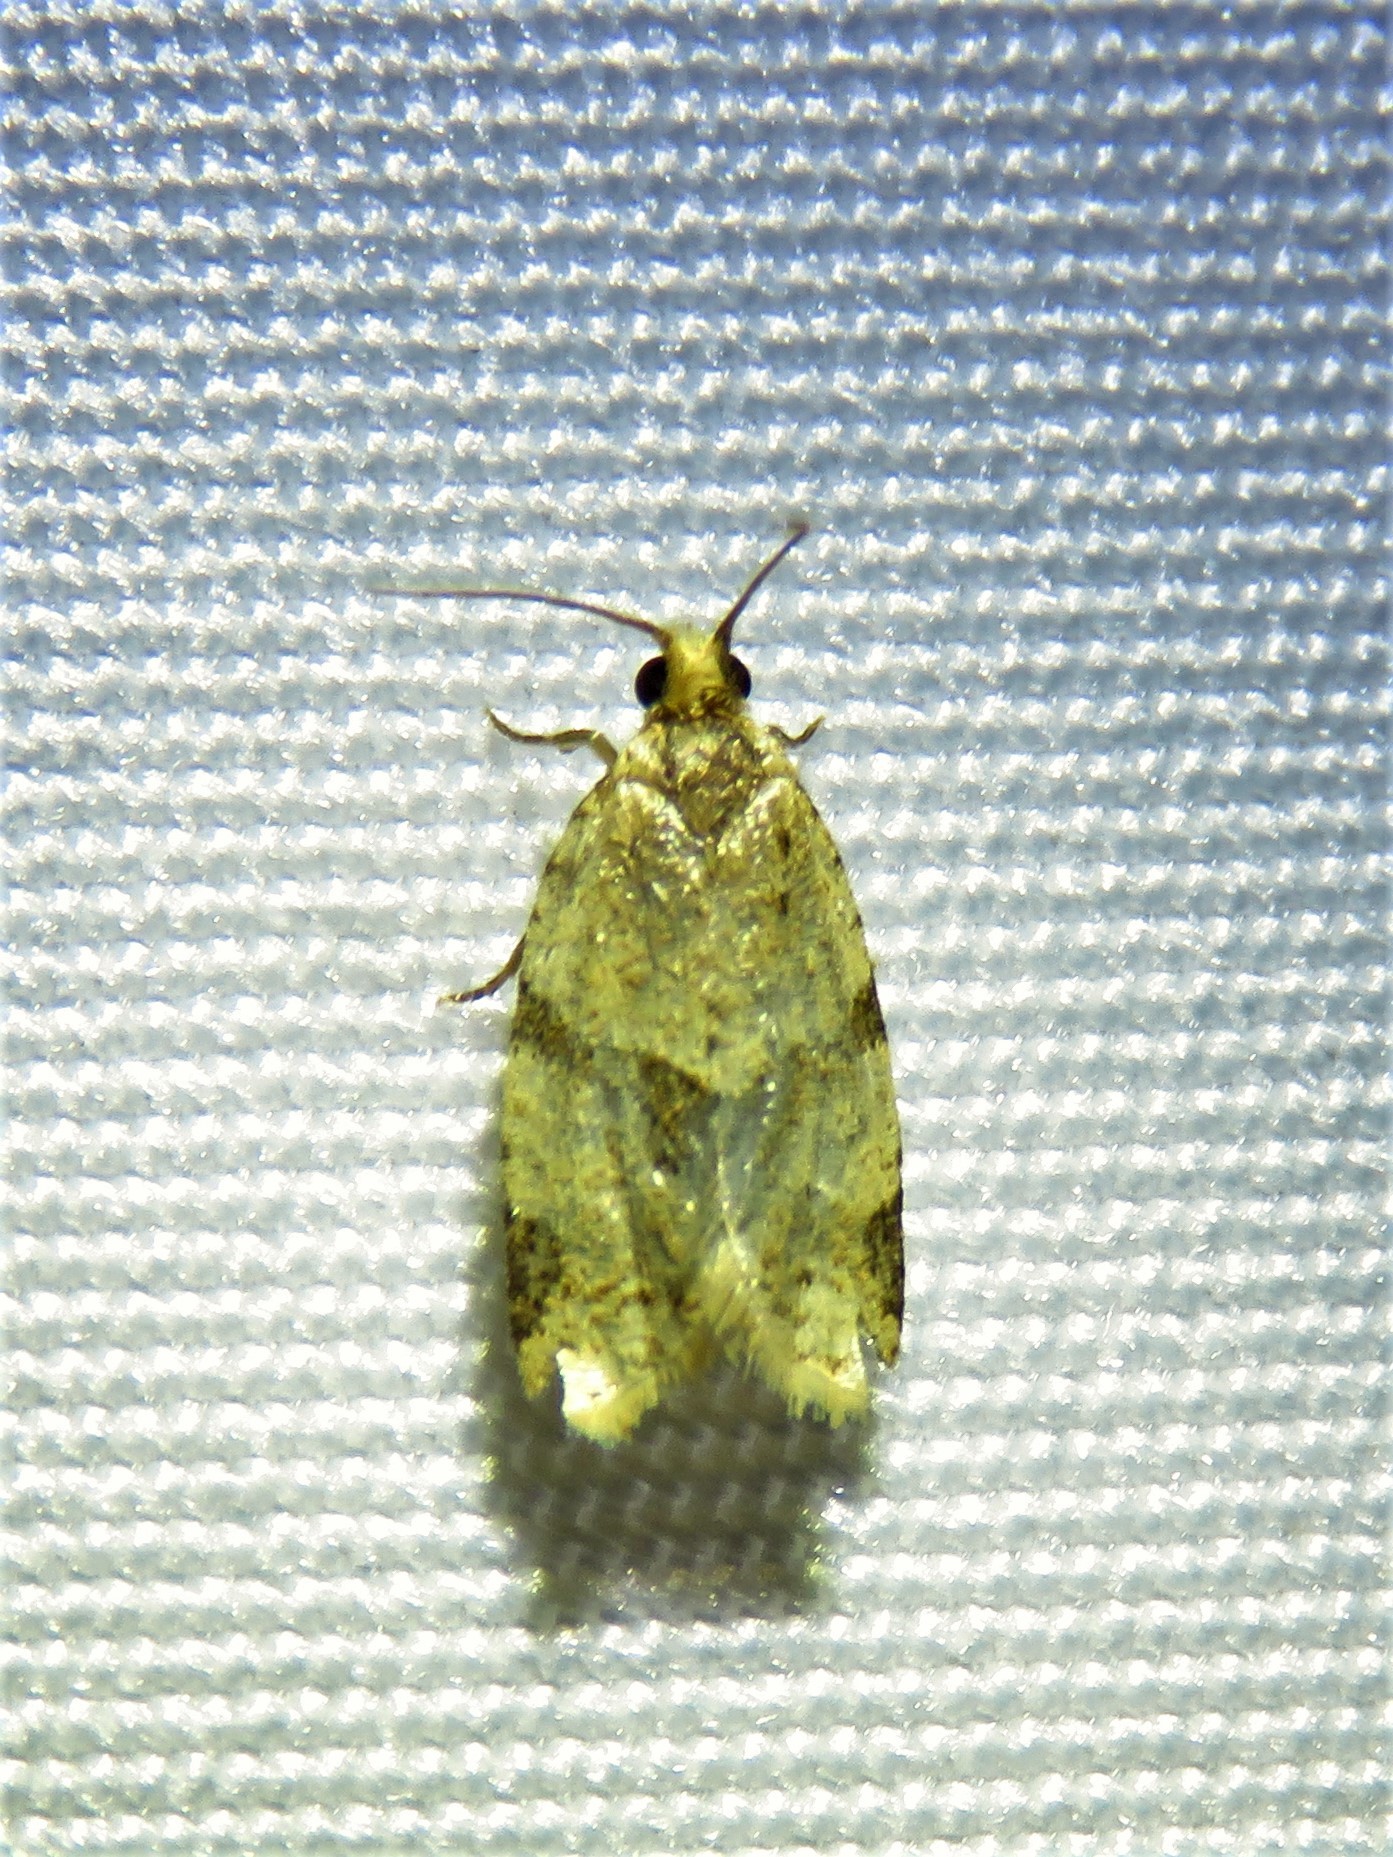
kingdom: Animalia
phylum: Arthropoda
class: Insecta
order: Lepidoptera
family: Tortricidae
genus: Clepsis
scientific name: Clepsis peritana
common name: Garden tortrix
